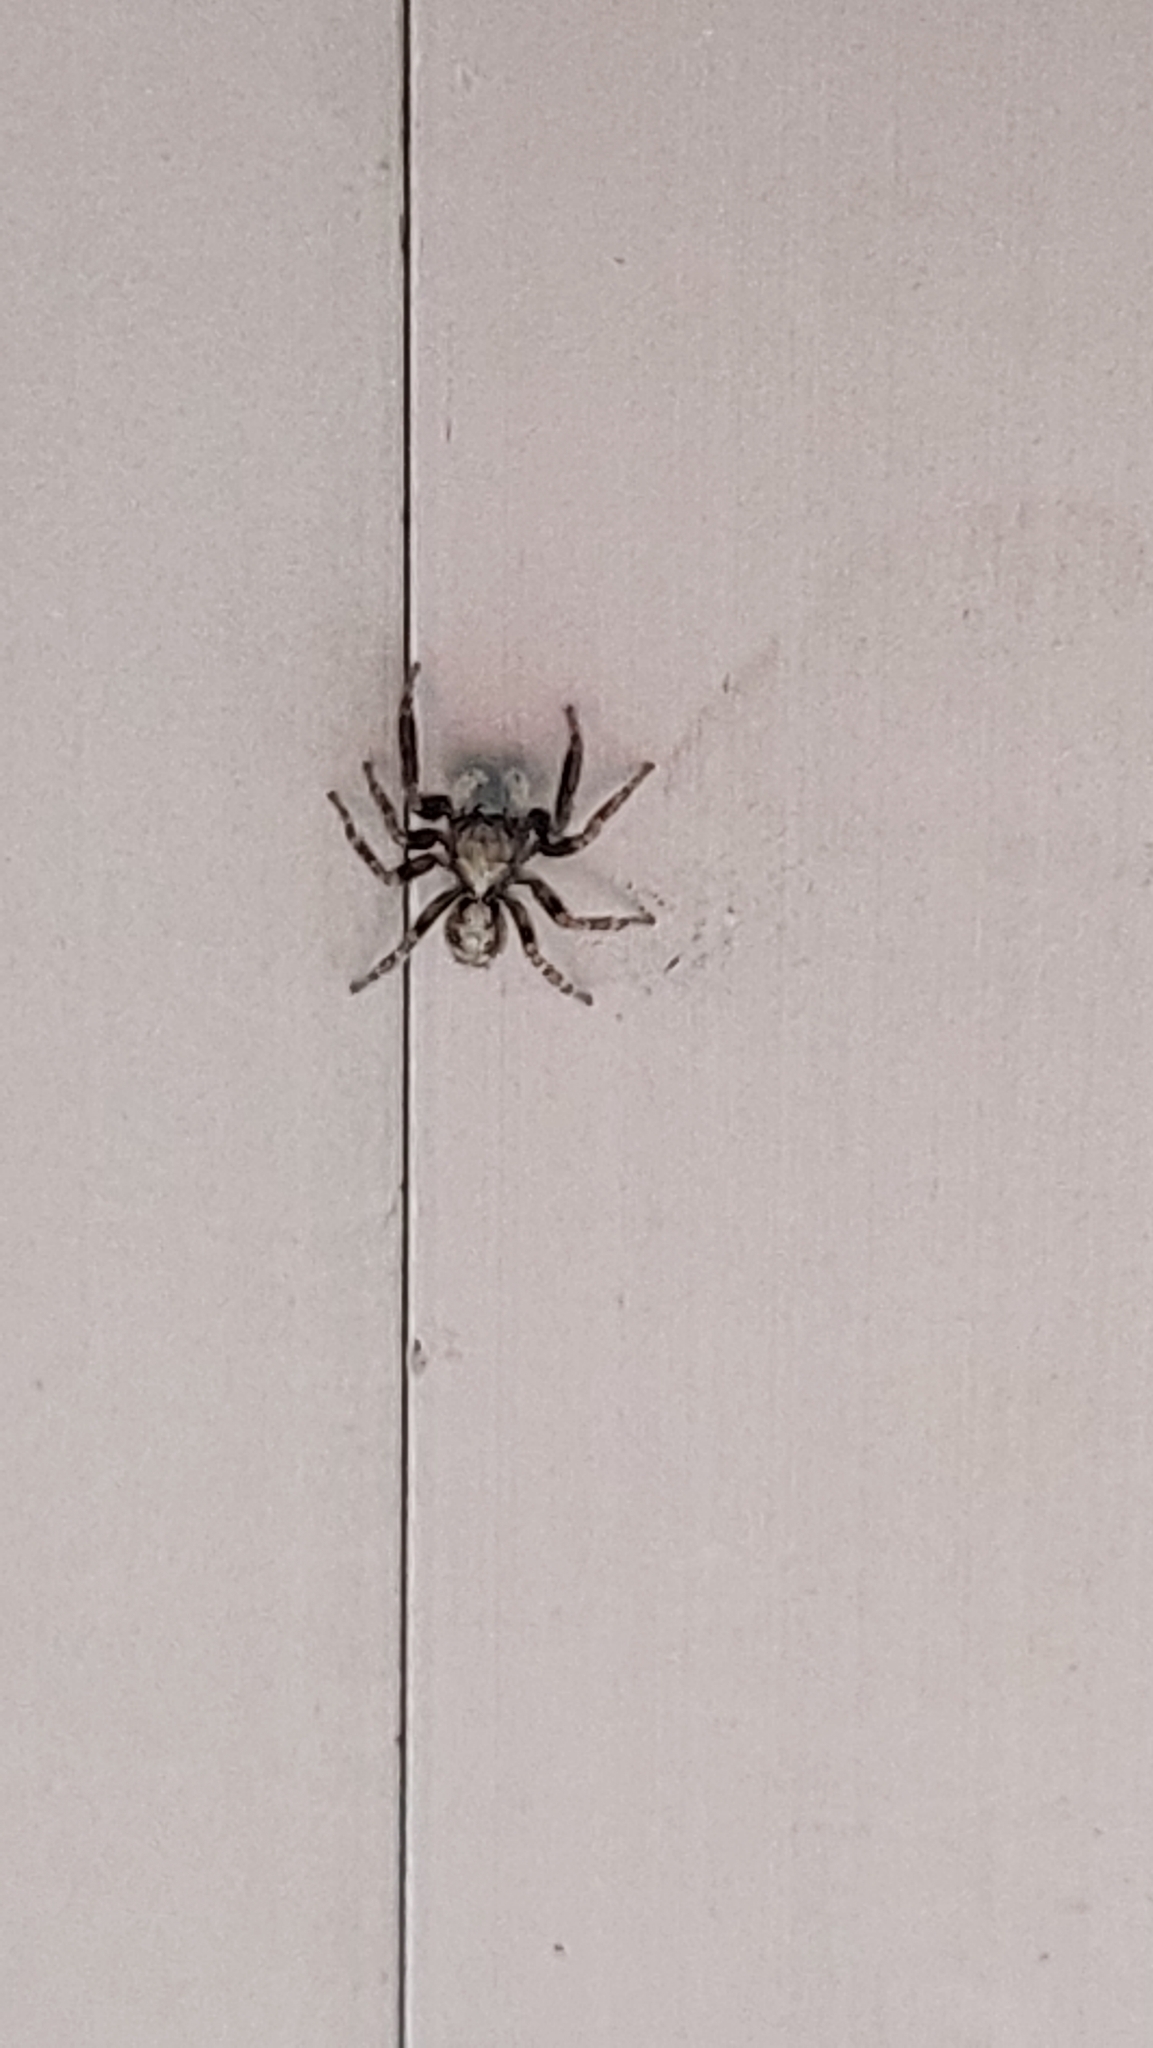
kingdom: Animalia
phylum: Arthropoda
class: Arachnida
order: Araneae
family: Salticidae
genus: Pseudeuophrys
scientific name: Pseudeuophrys lanigera
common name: Jumping spider
